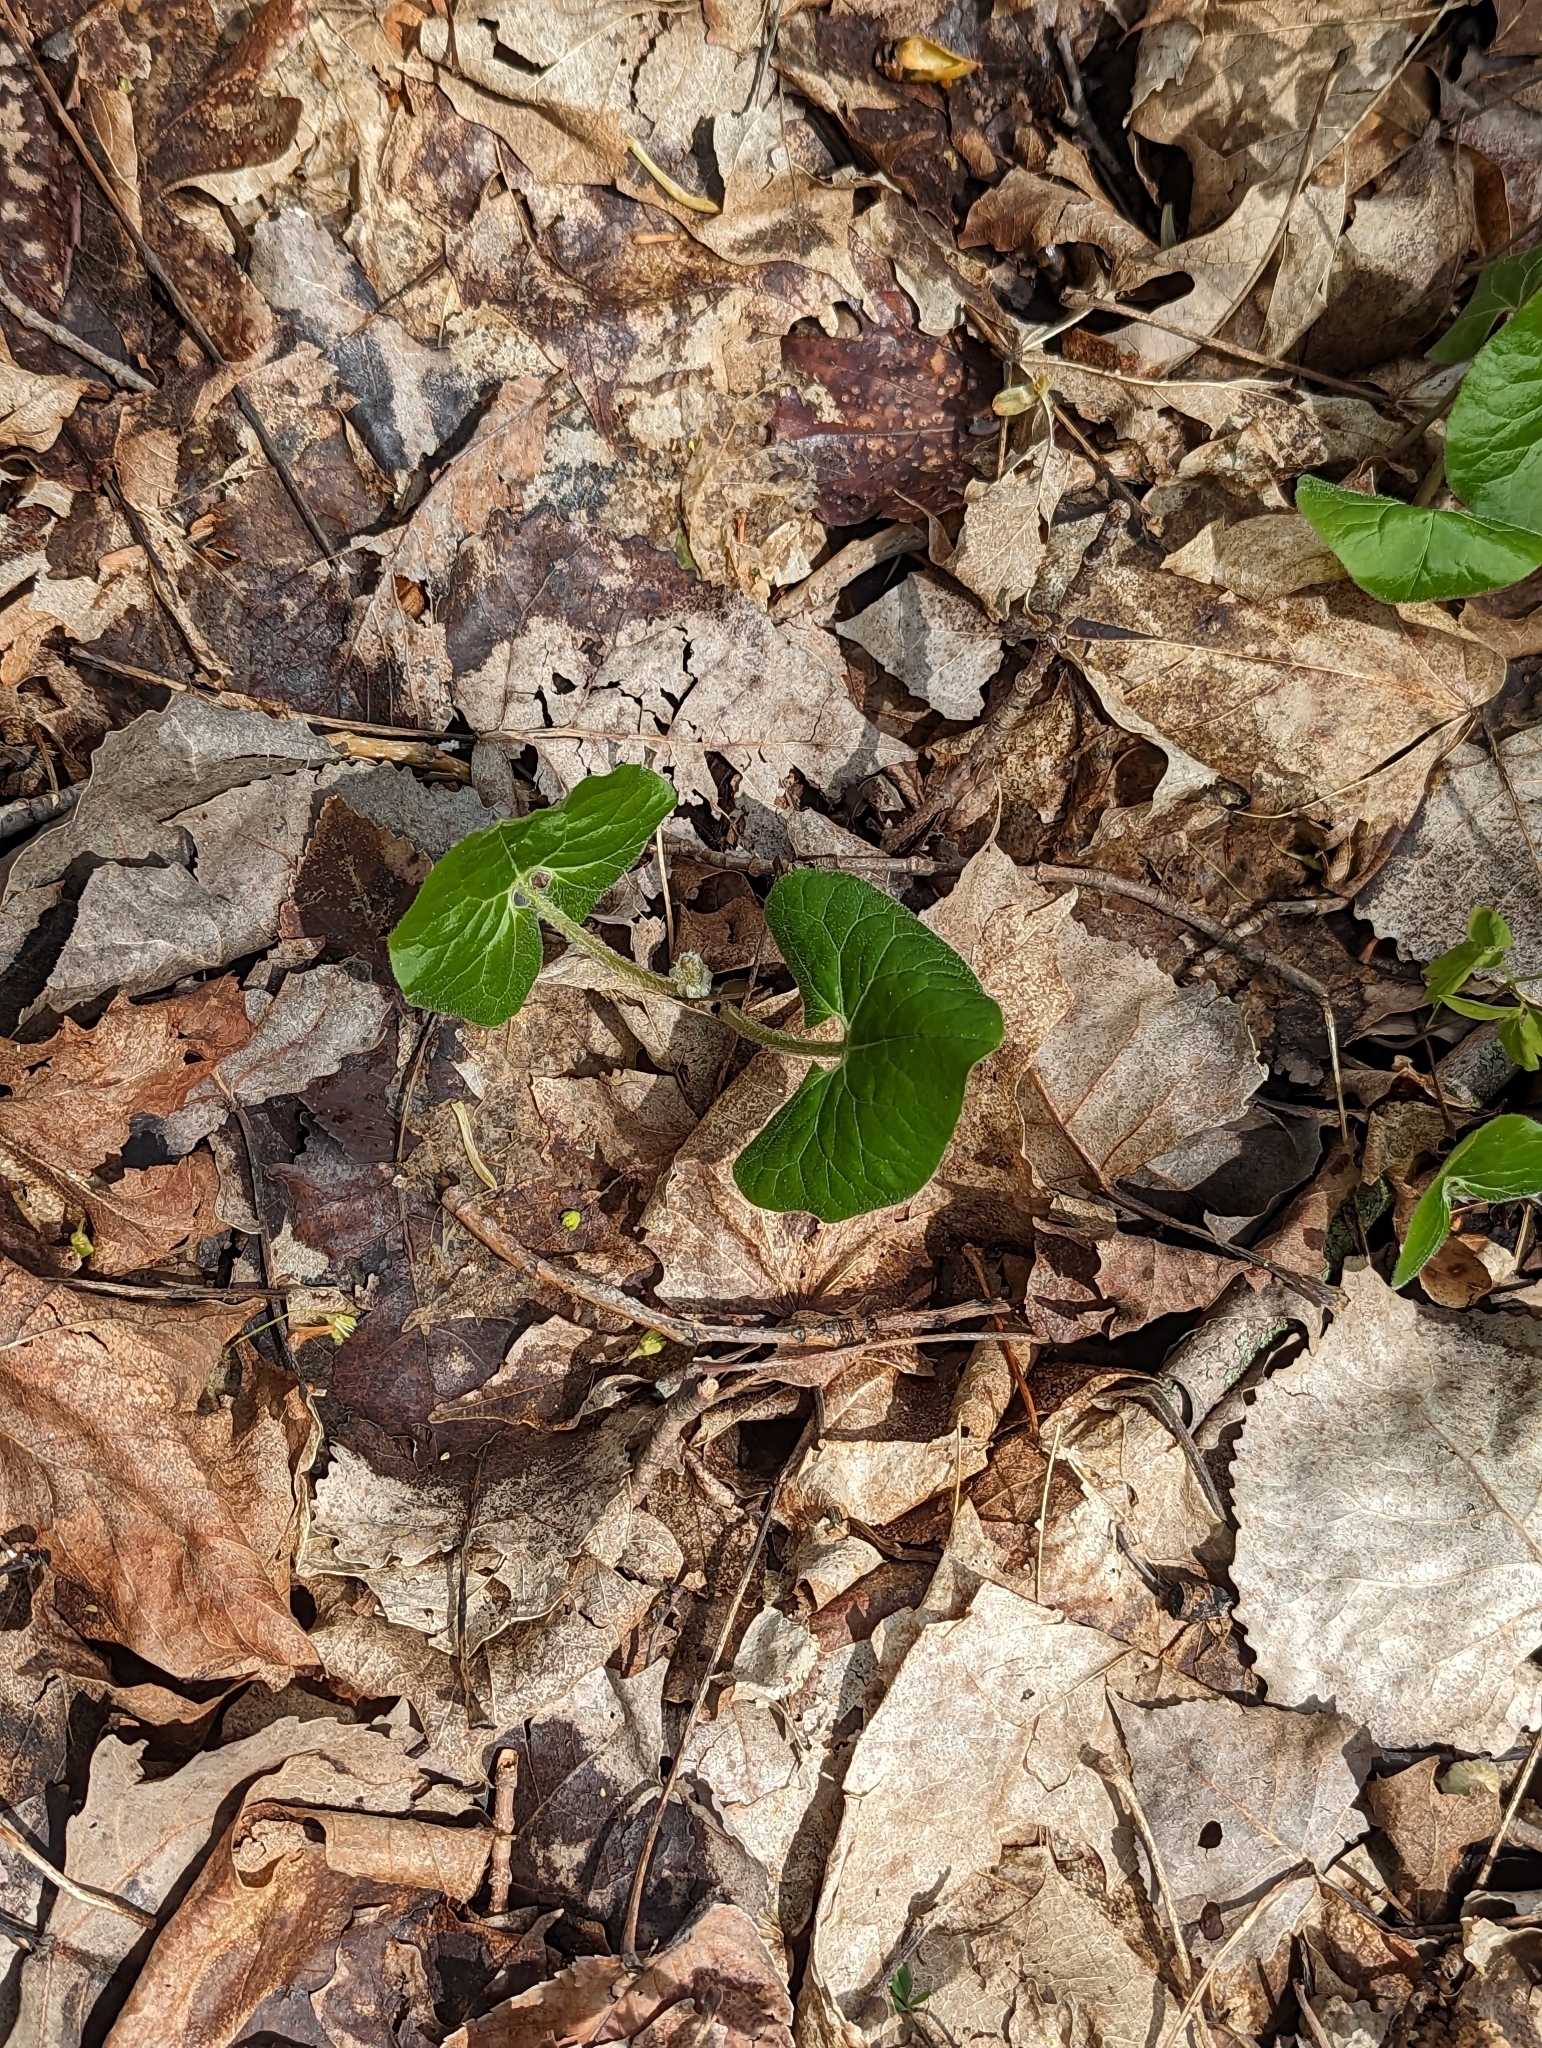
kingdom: Plantae
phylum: Tracheophyta
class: Magnoliopsida
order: Piperales
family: Aristolochiaceae
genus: Asarum
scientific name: Asarum canadense
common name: Wild ginger
